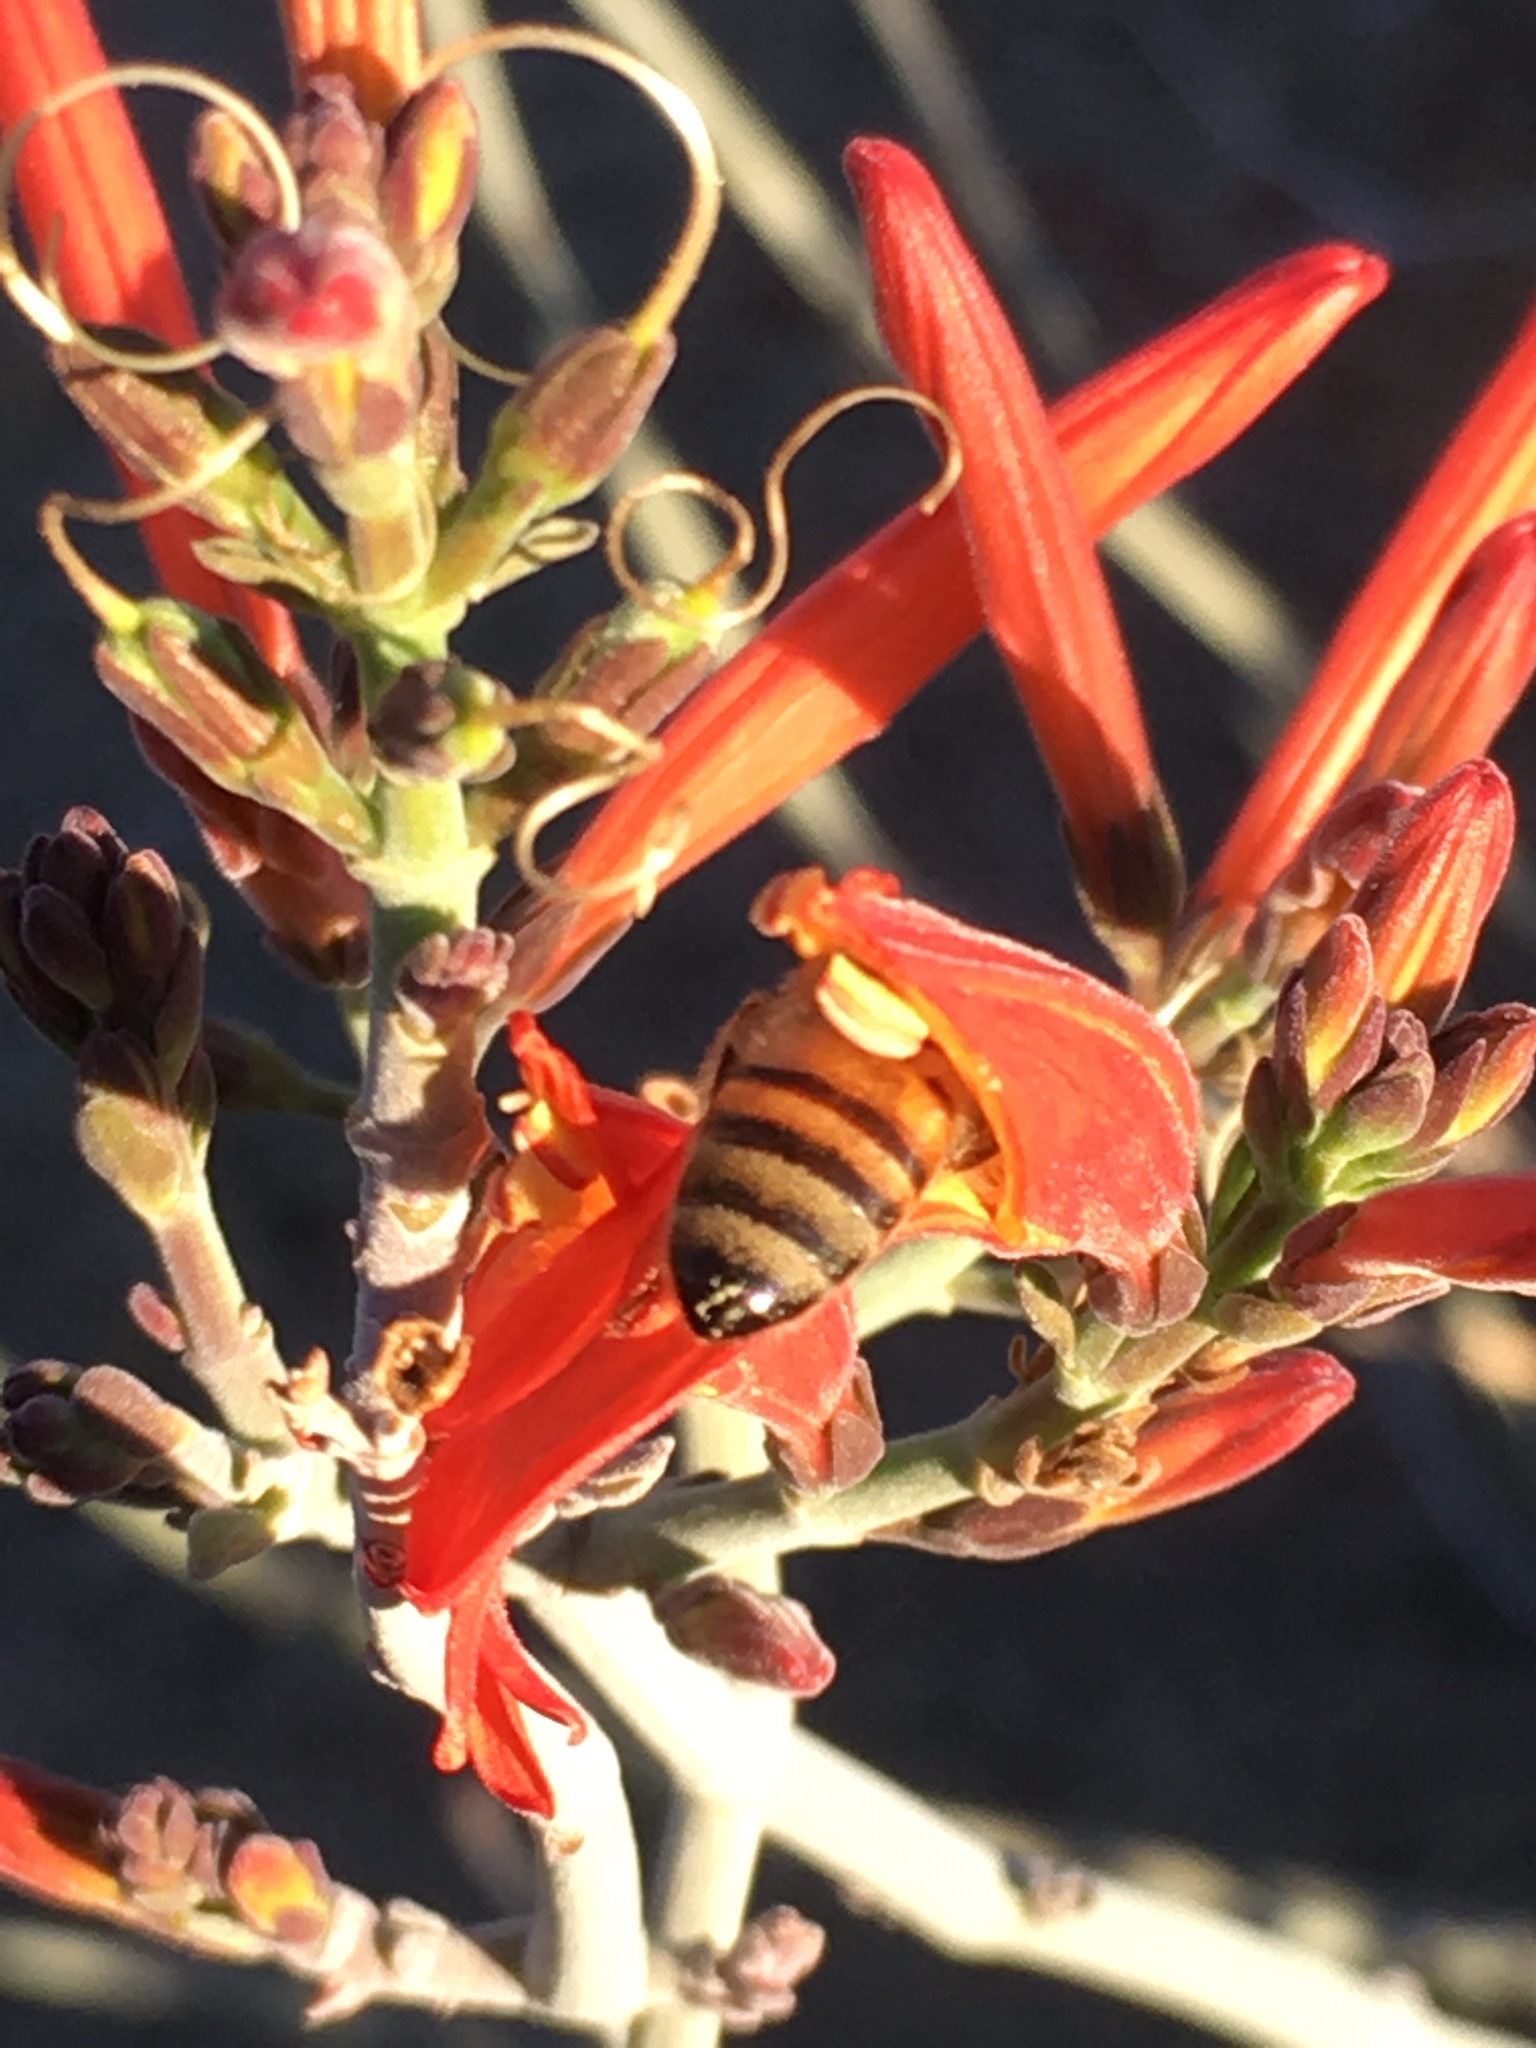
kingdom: Animalia
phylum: Arthropoda
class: Insecta
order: Hymenoptera
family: Apidae
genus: Apis
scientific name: Apis mellifera
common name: Honey bee
